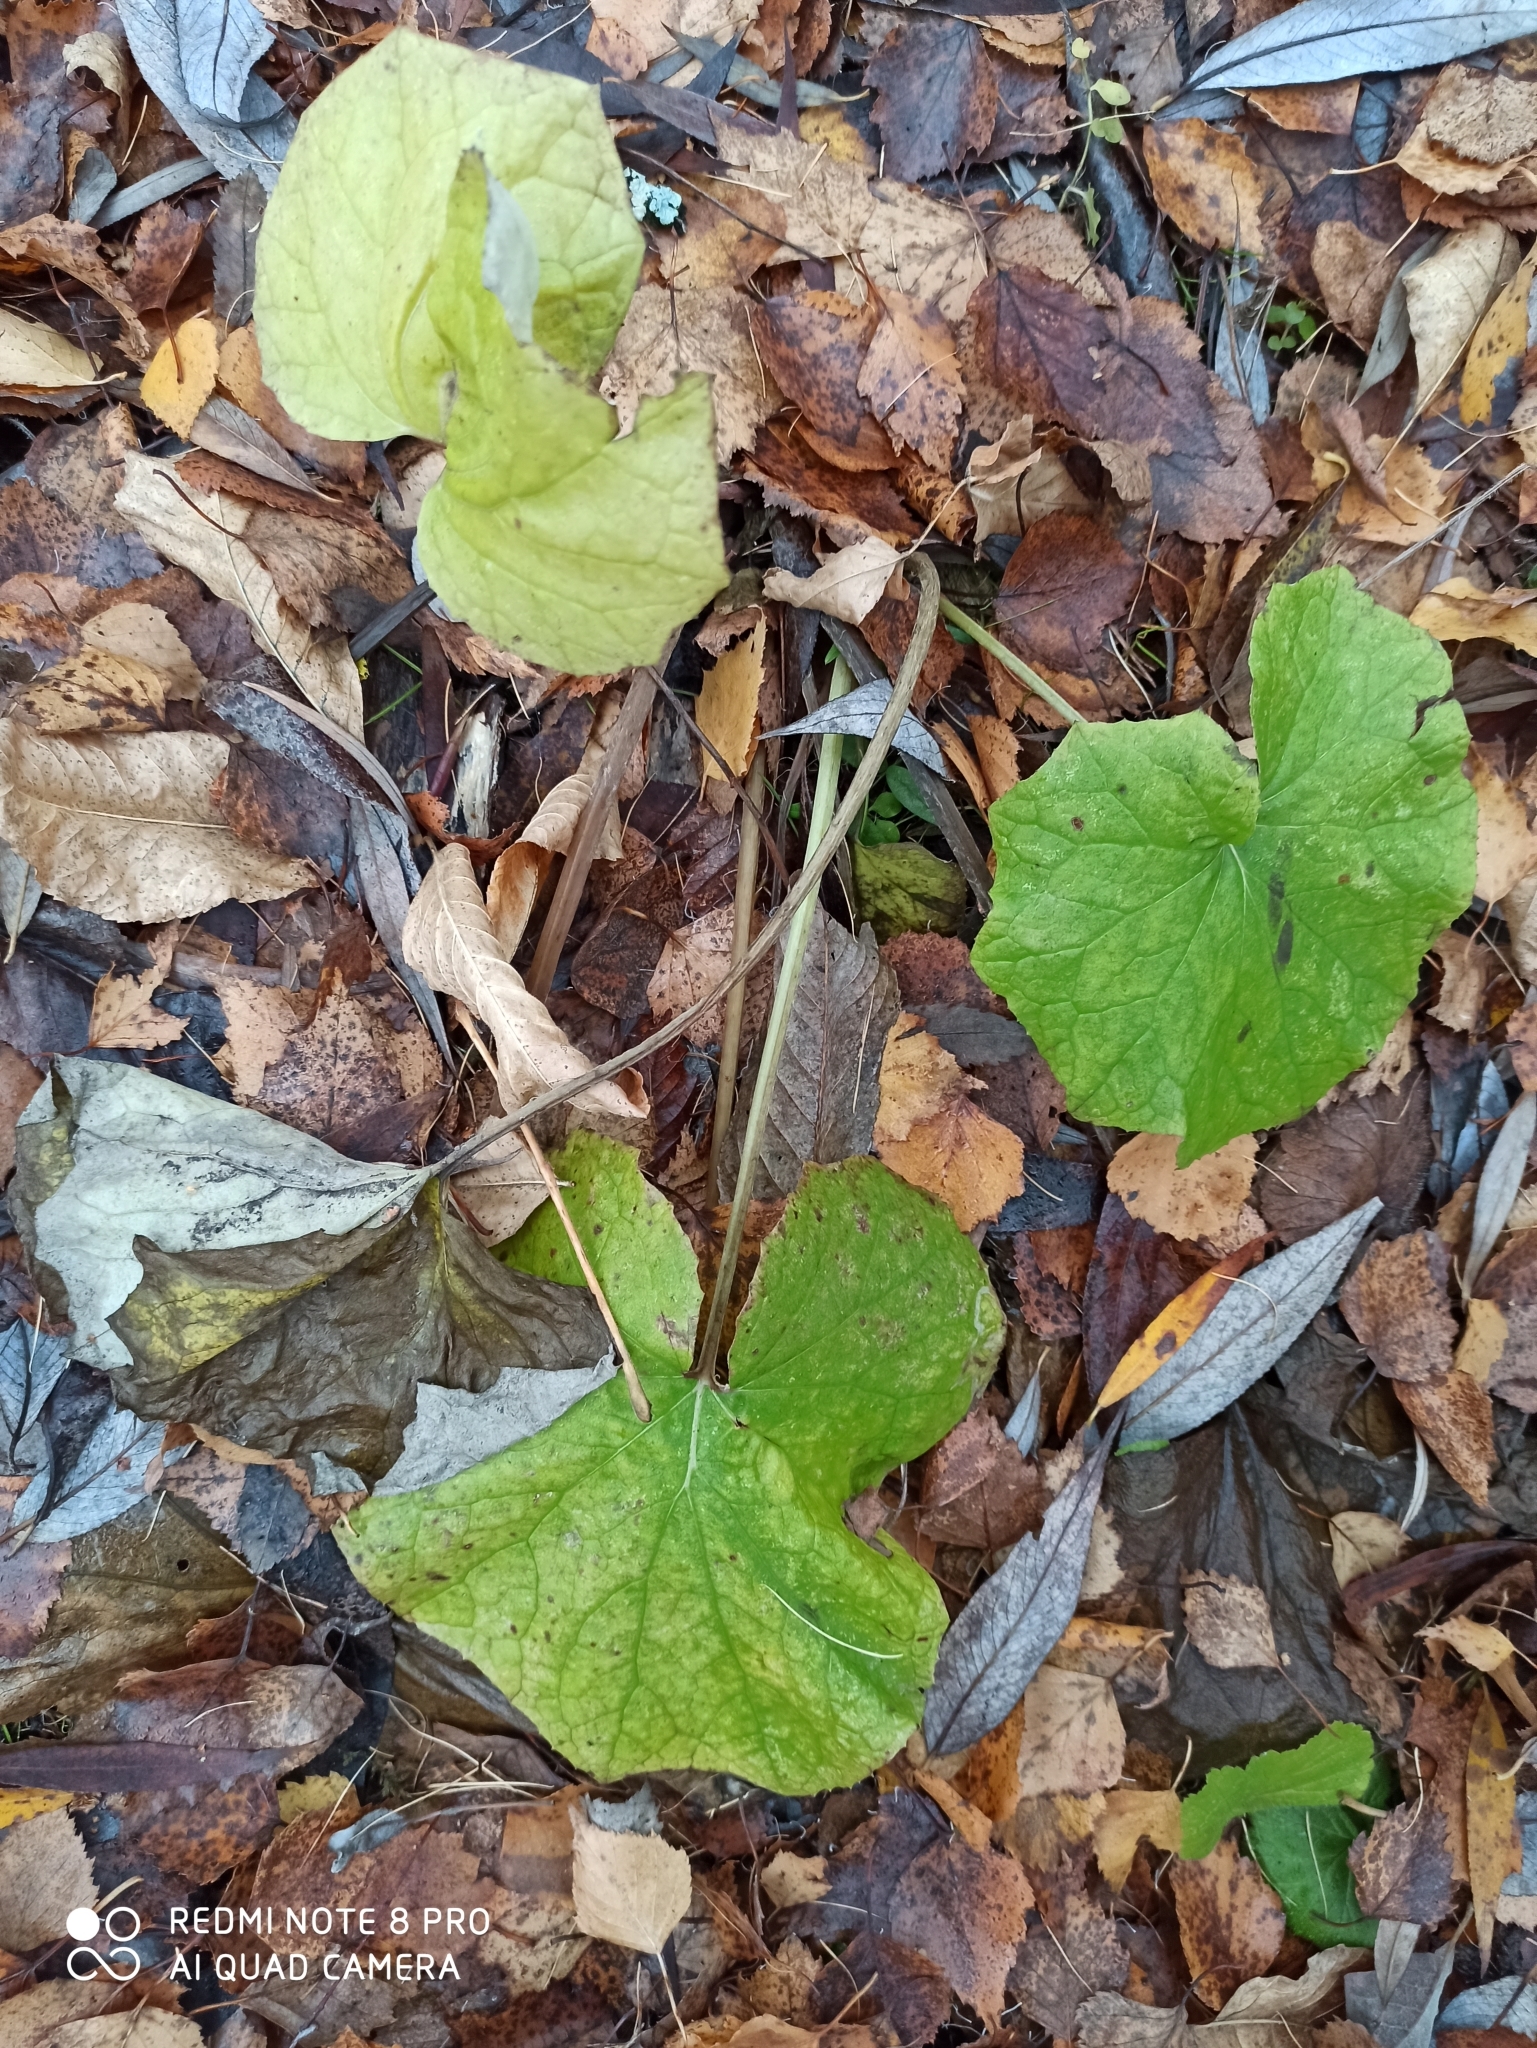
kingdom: Plantae
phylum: Tracheophyta
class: Magnoliopsida
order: Asterales
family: Asteraceae
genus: Tussilago
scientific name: Tussilago farfara
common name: Coltsfoot
